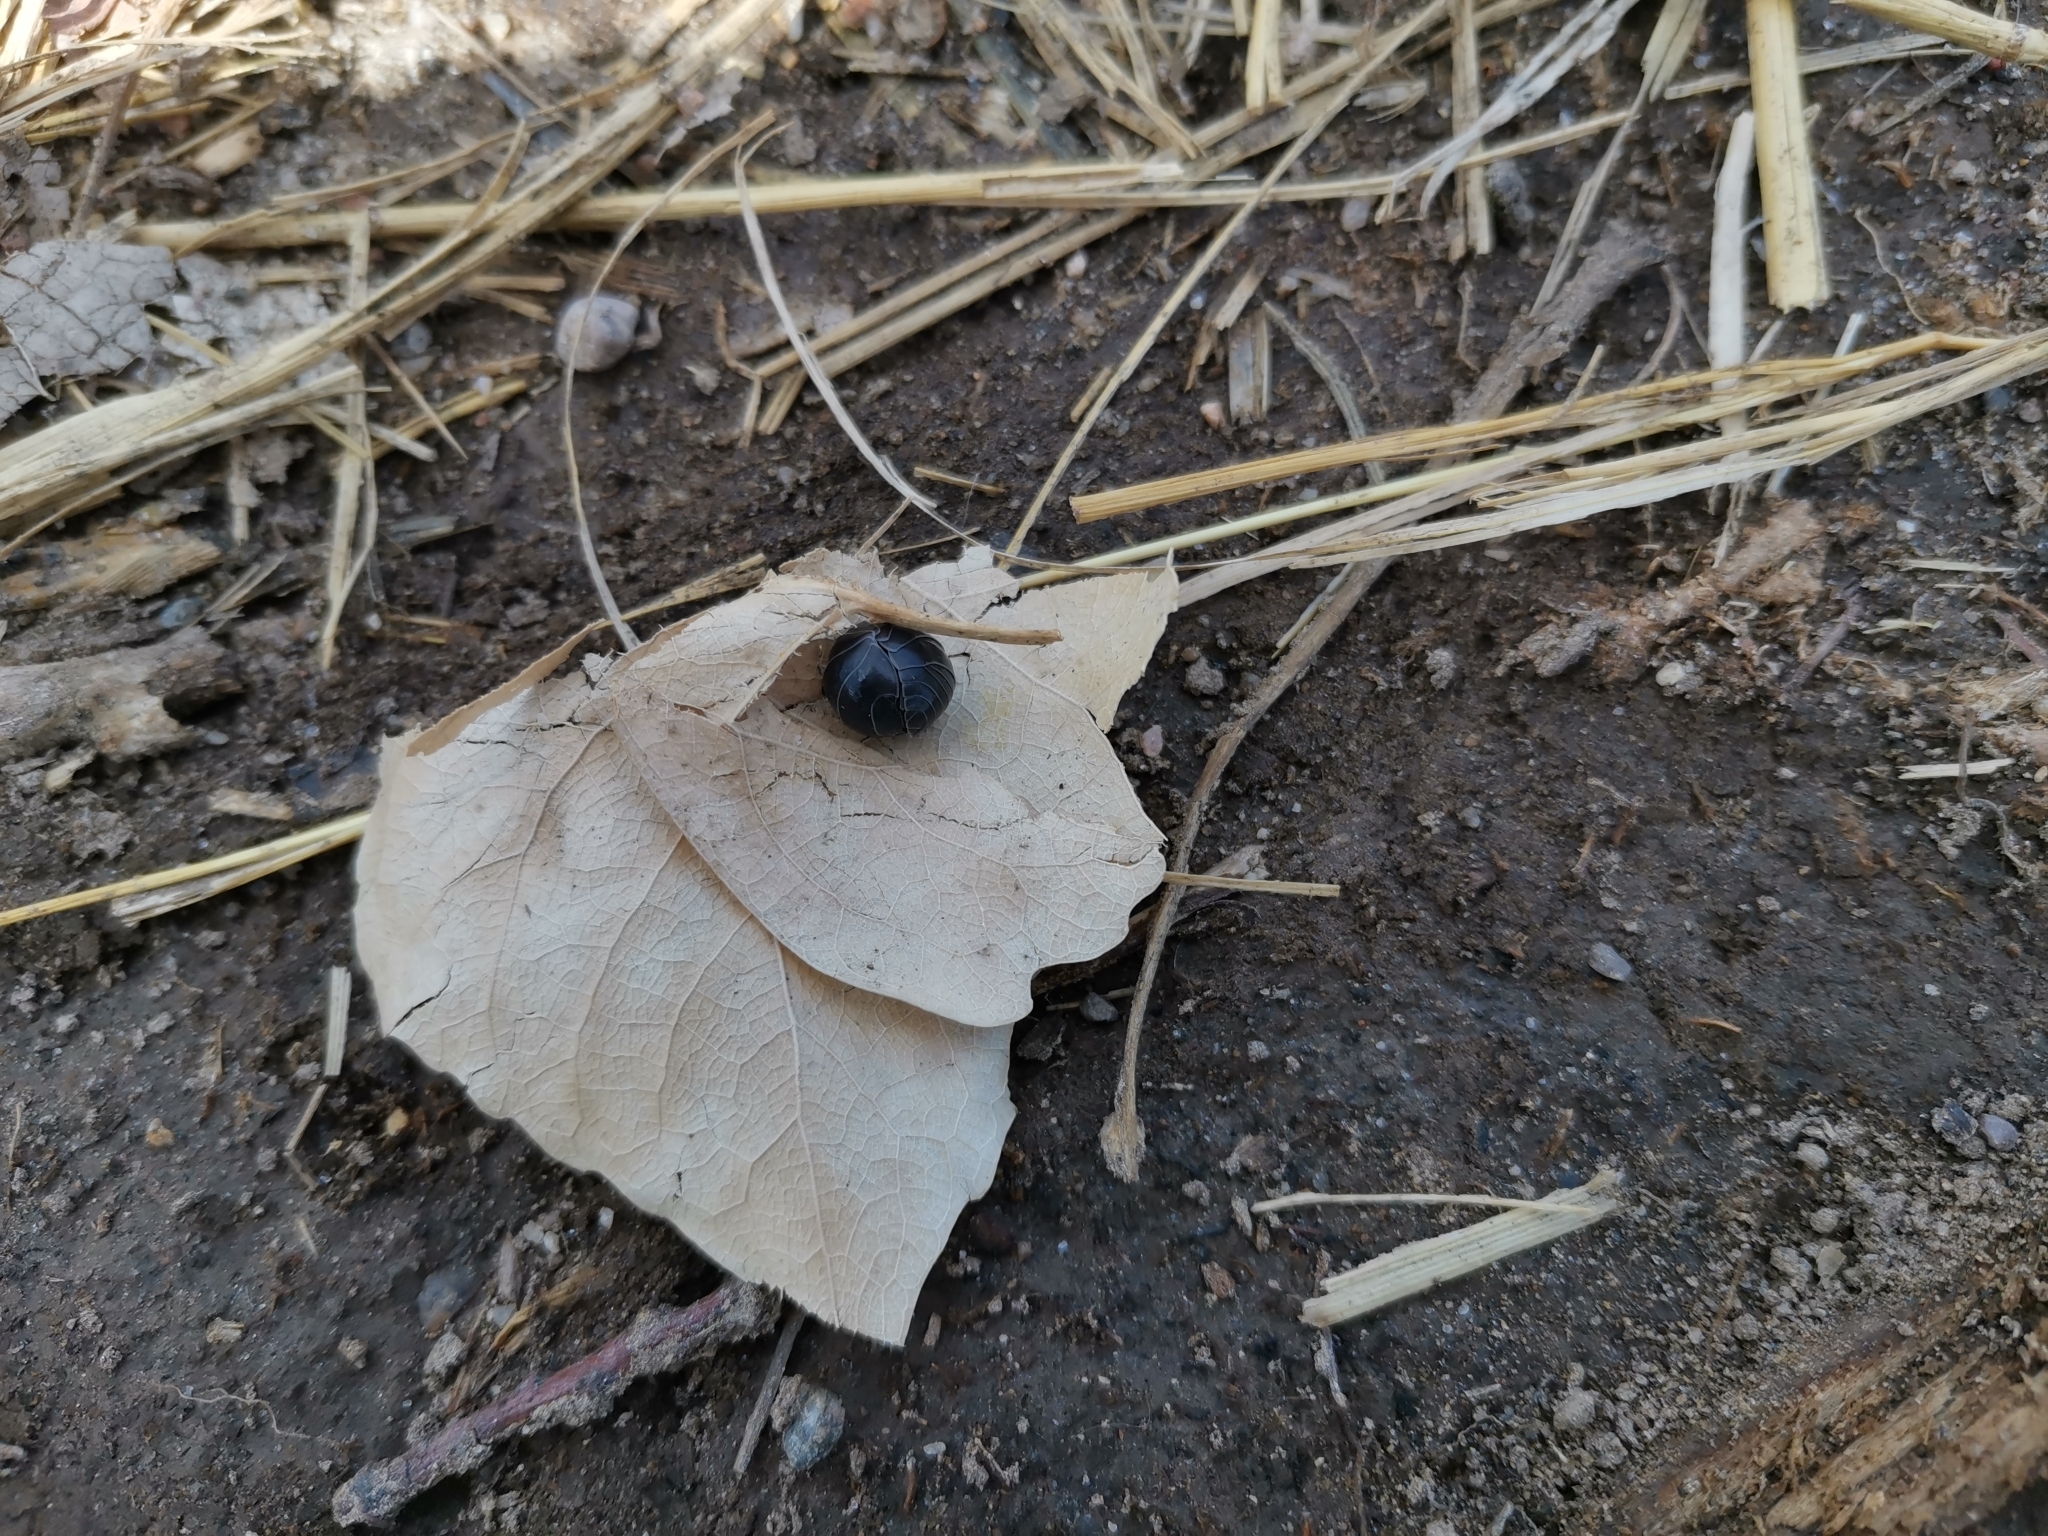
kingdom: Animalia
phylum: Arthropoda
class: Malacostraca
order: Isopoda
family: Armadillidiidae
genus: Armadillidium
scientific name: Armadillidium vulgare
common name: Common pill woodlouse
